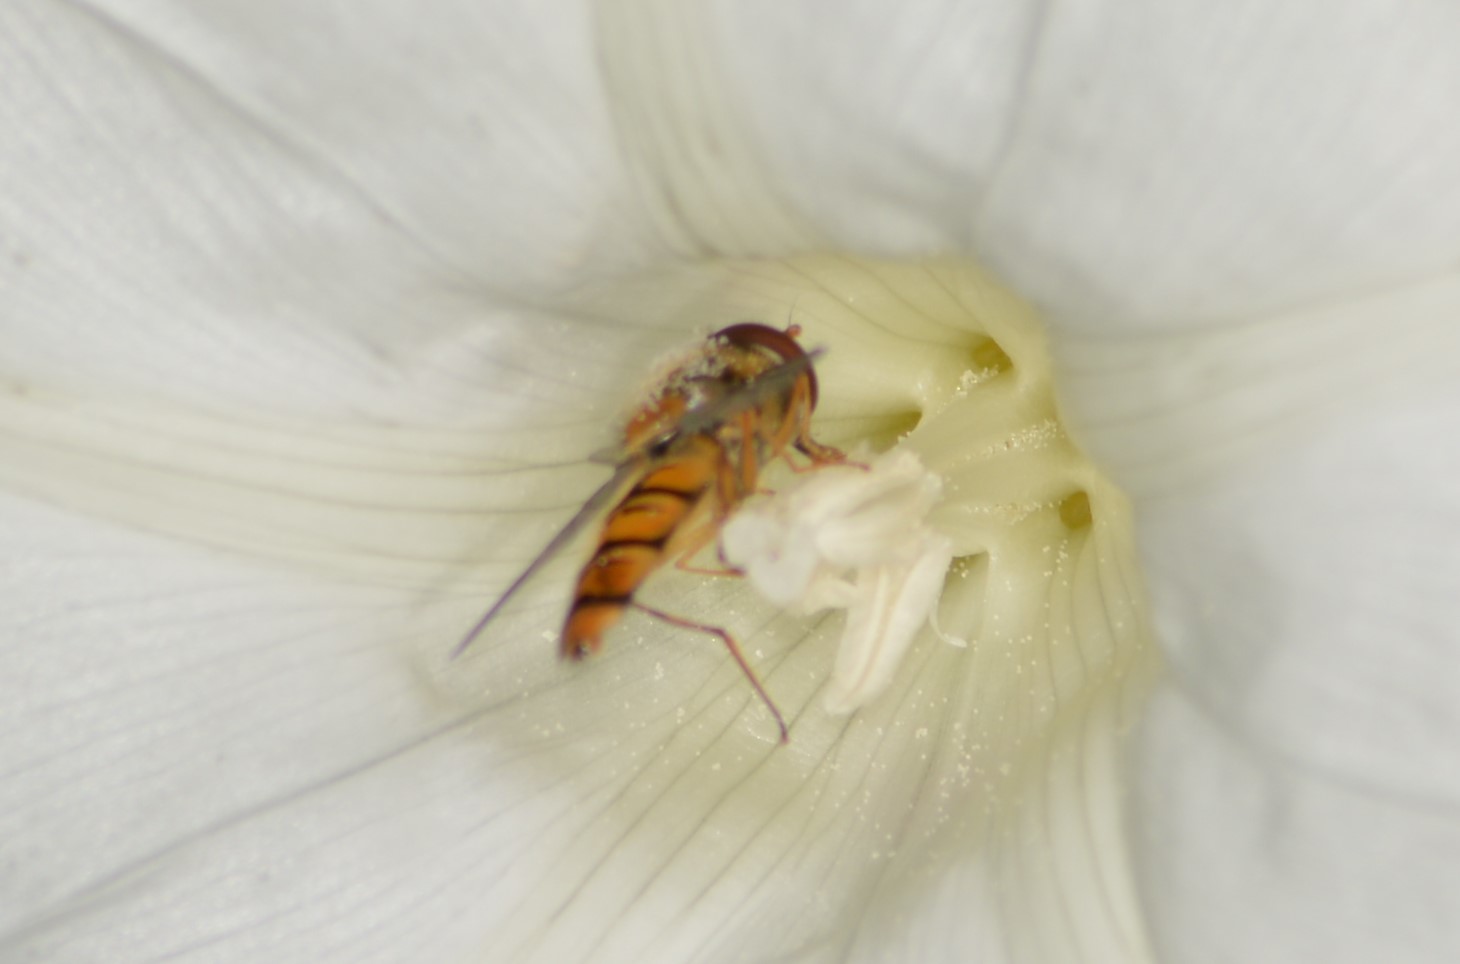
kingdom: Animalia
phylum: Arthropoda
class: Insecta
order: Diptera
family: Syrphidae
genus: Episyrphus
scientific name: Episyrphus balteatus
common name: Marmalade hoverfly
